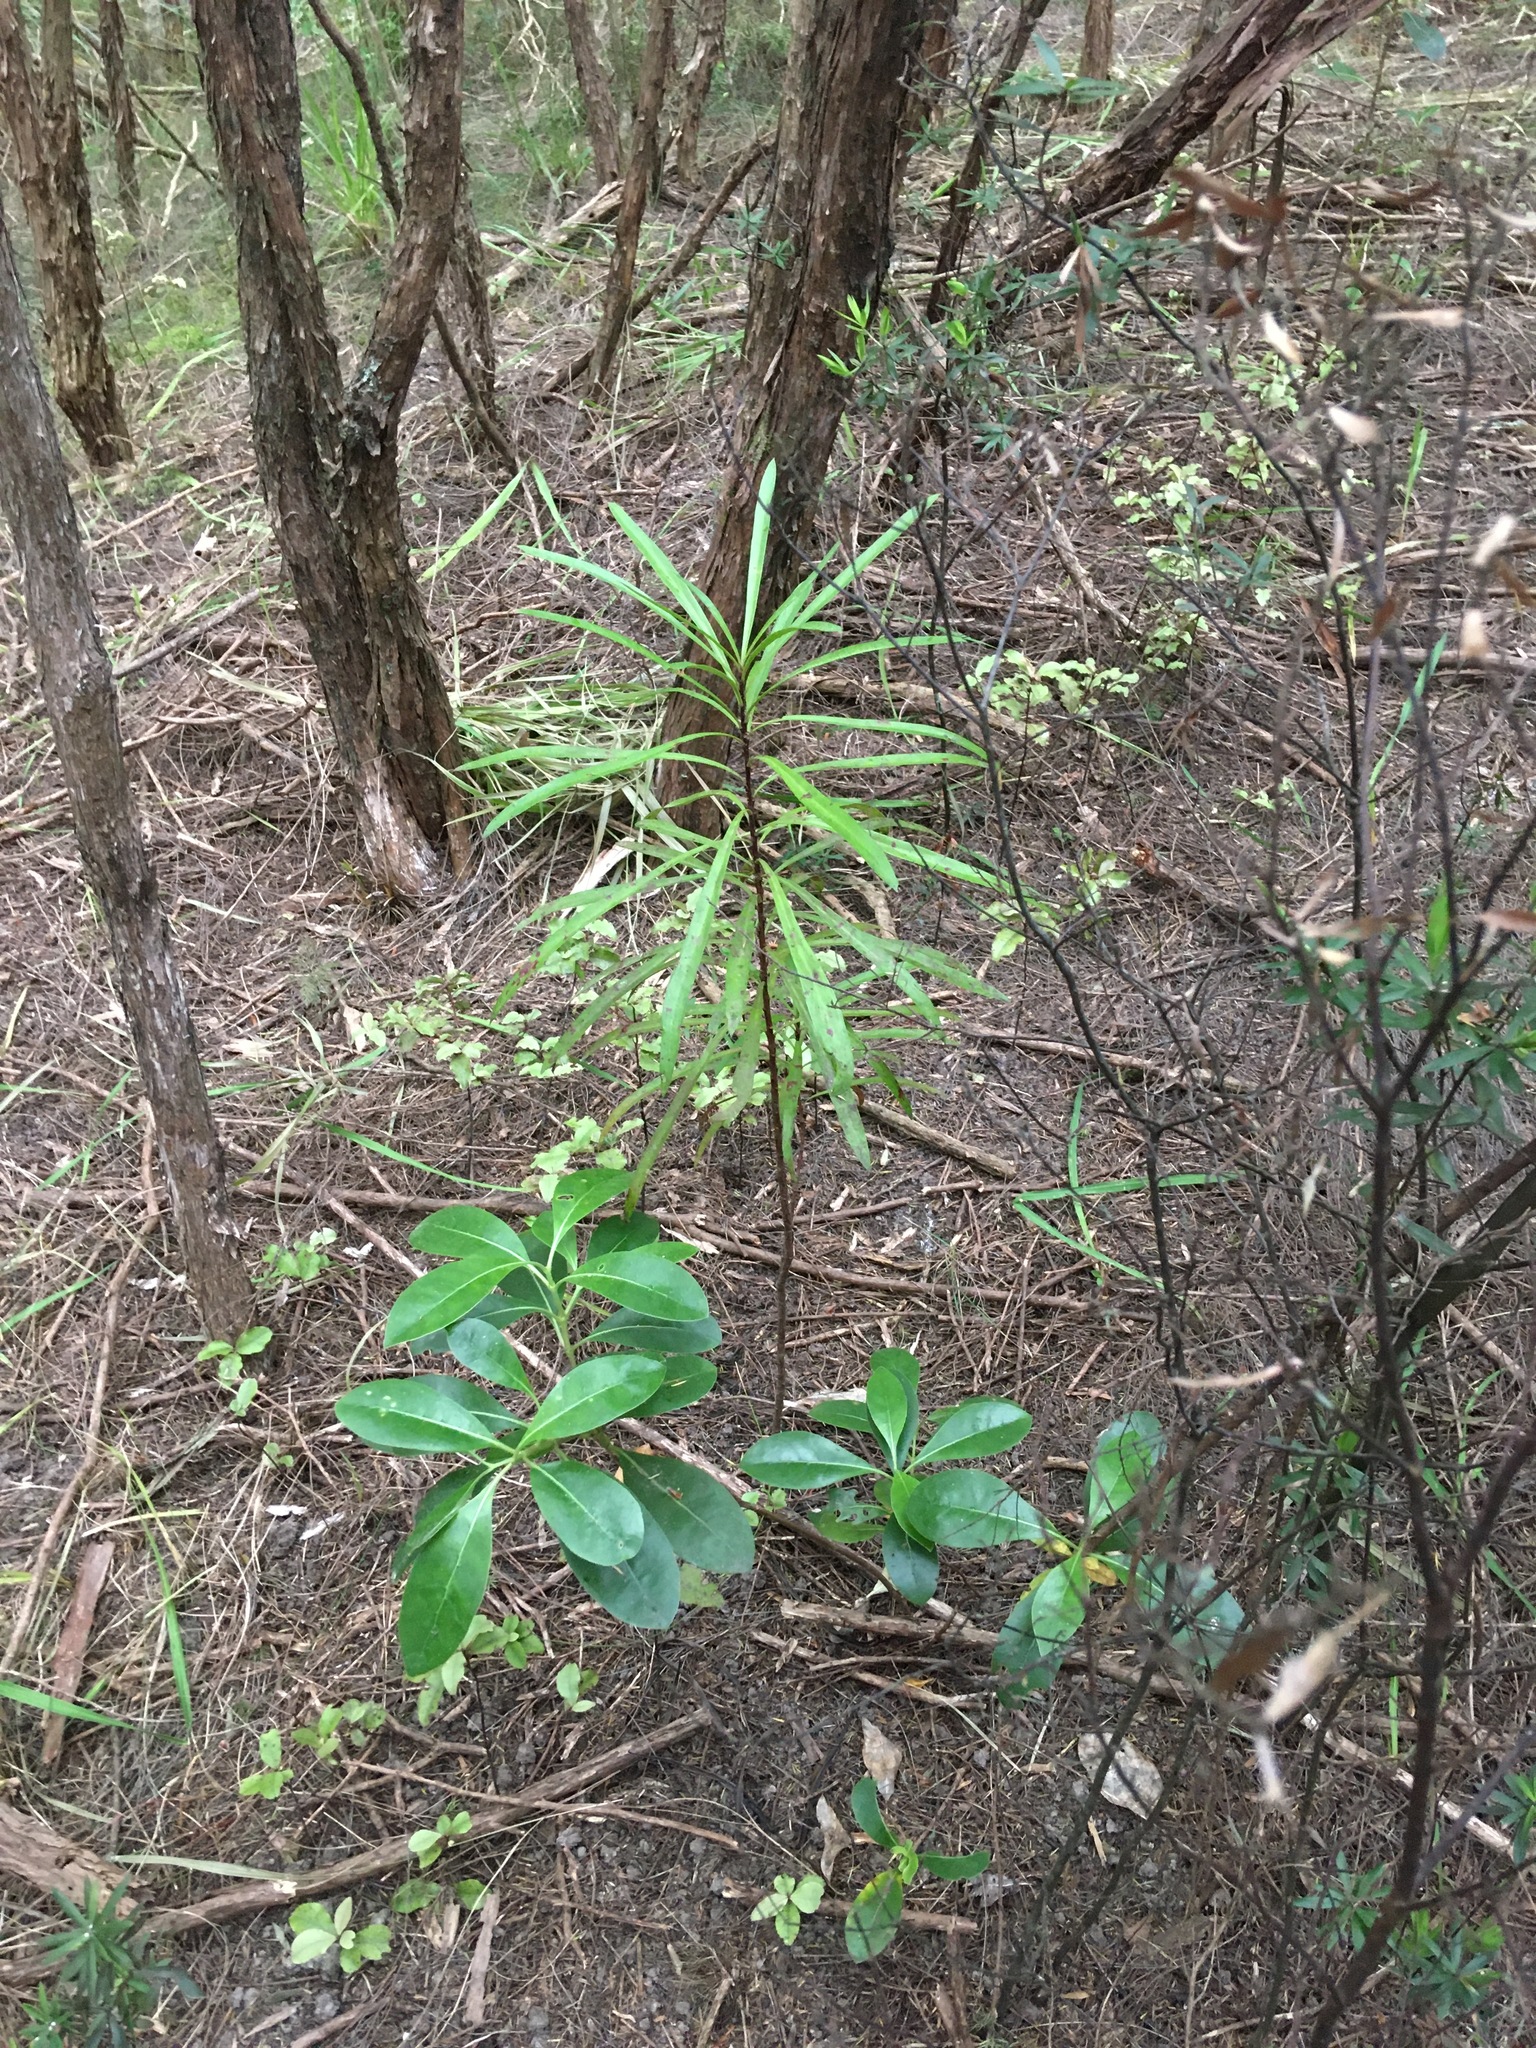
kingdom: Plantae
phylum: Tracheophyta
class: Magnoliopsida
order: Proteales
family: Proteaceae
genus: Toronia
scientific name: Toronia toru
